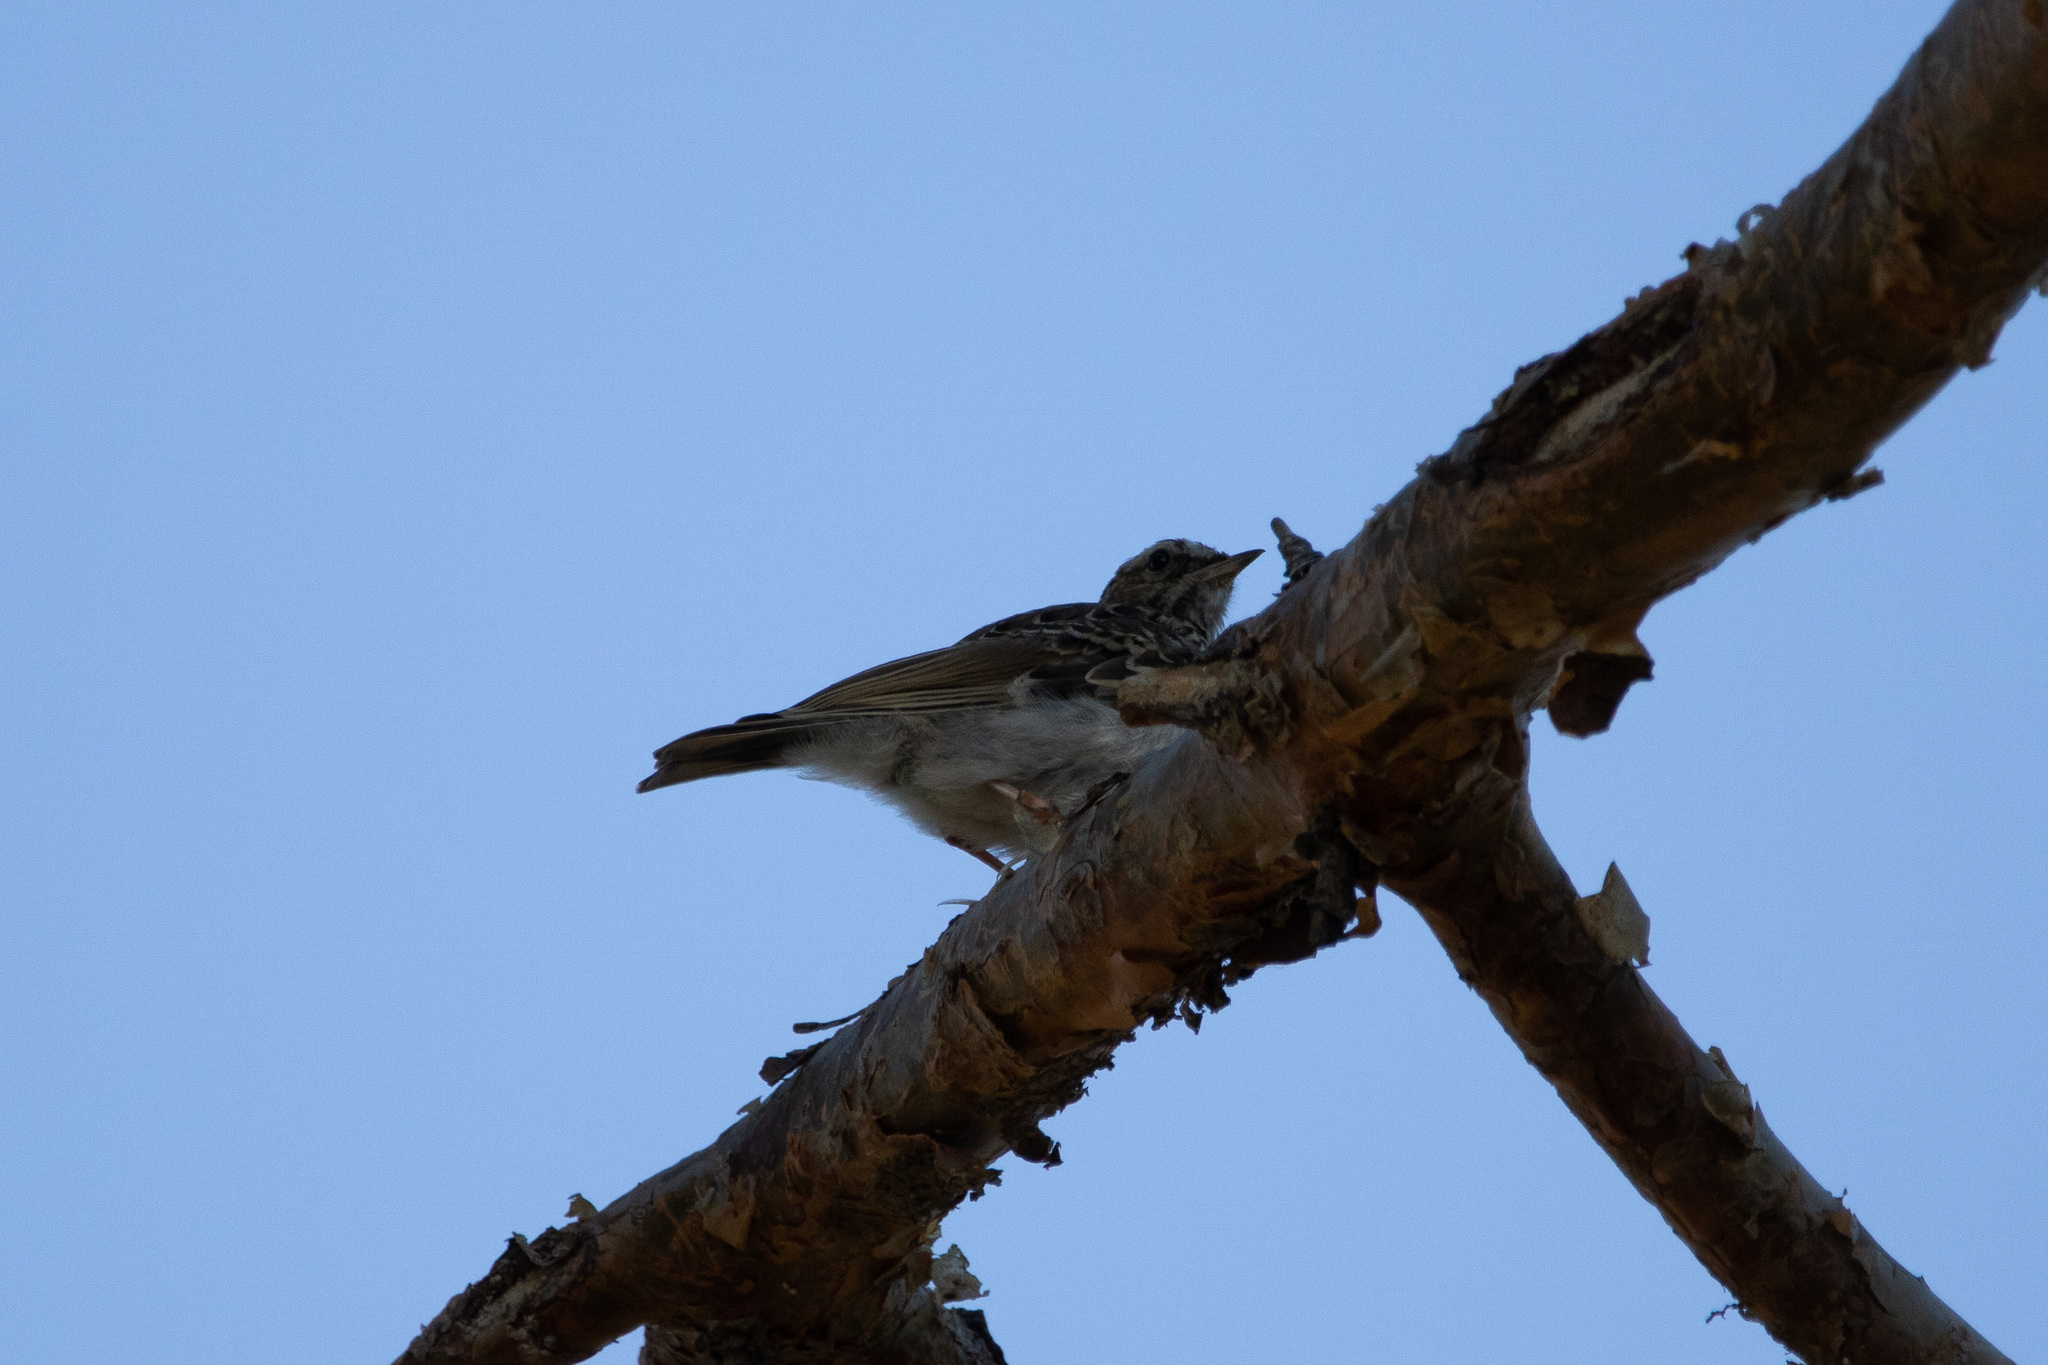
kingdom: Animalia
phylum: Chordata
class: Aves
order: Passeriformes
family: Alaudidae
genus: Lullula
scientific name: Lullula arborea
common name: Woodlark
